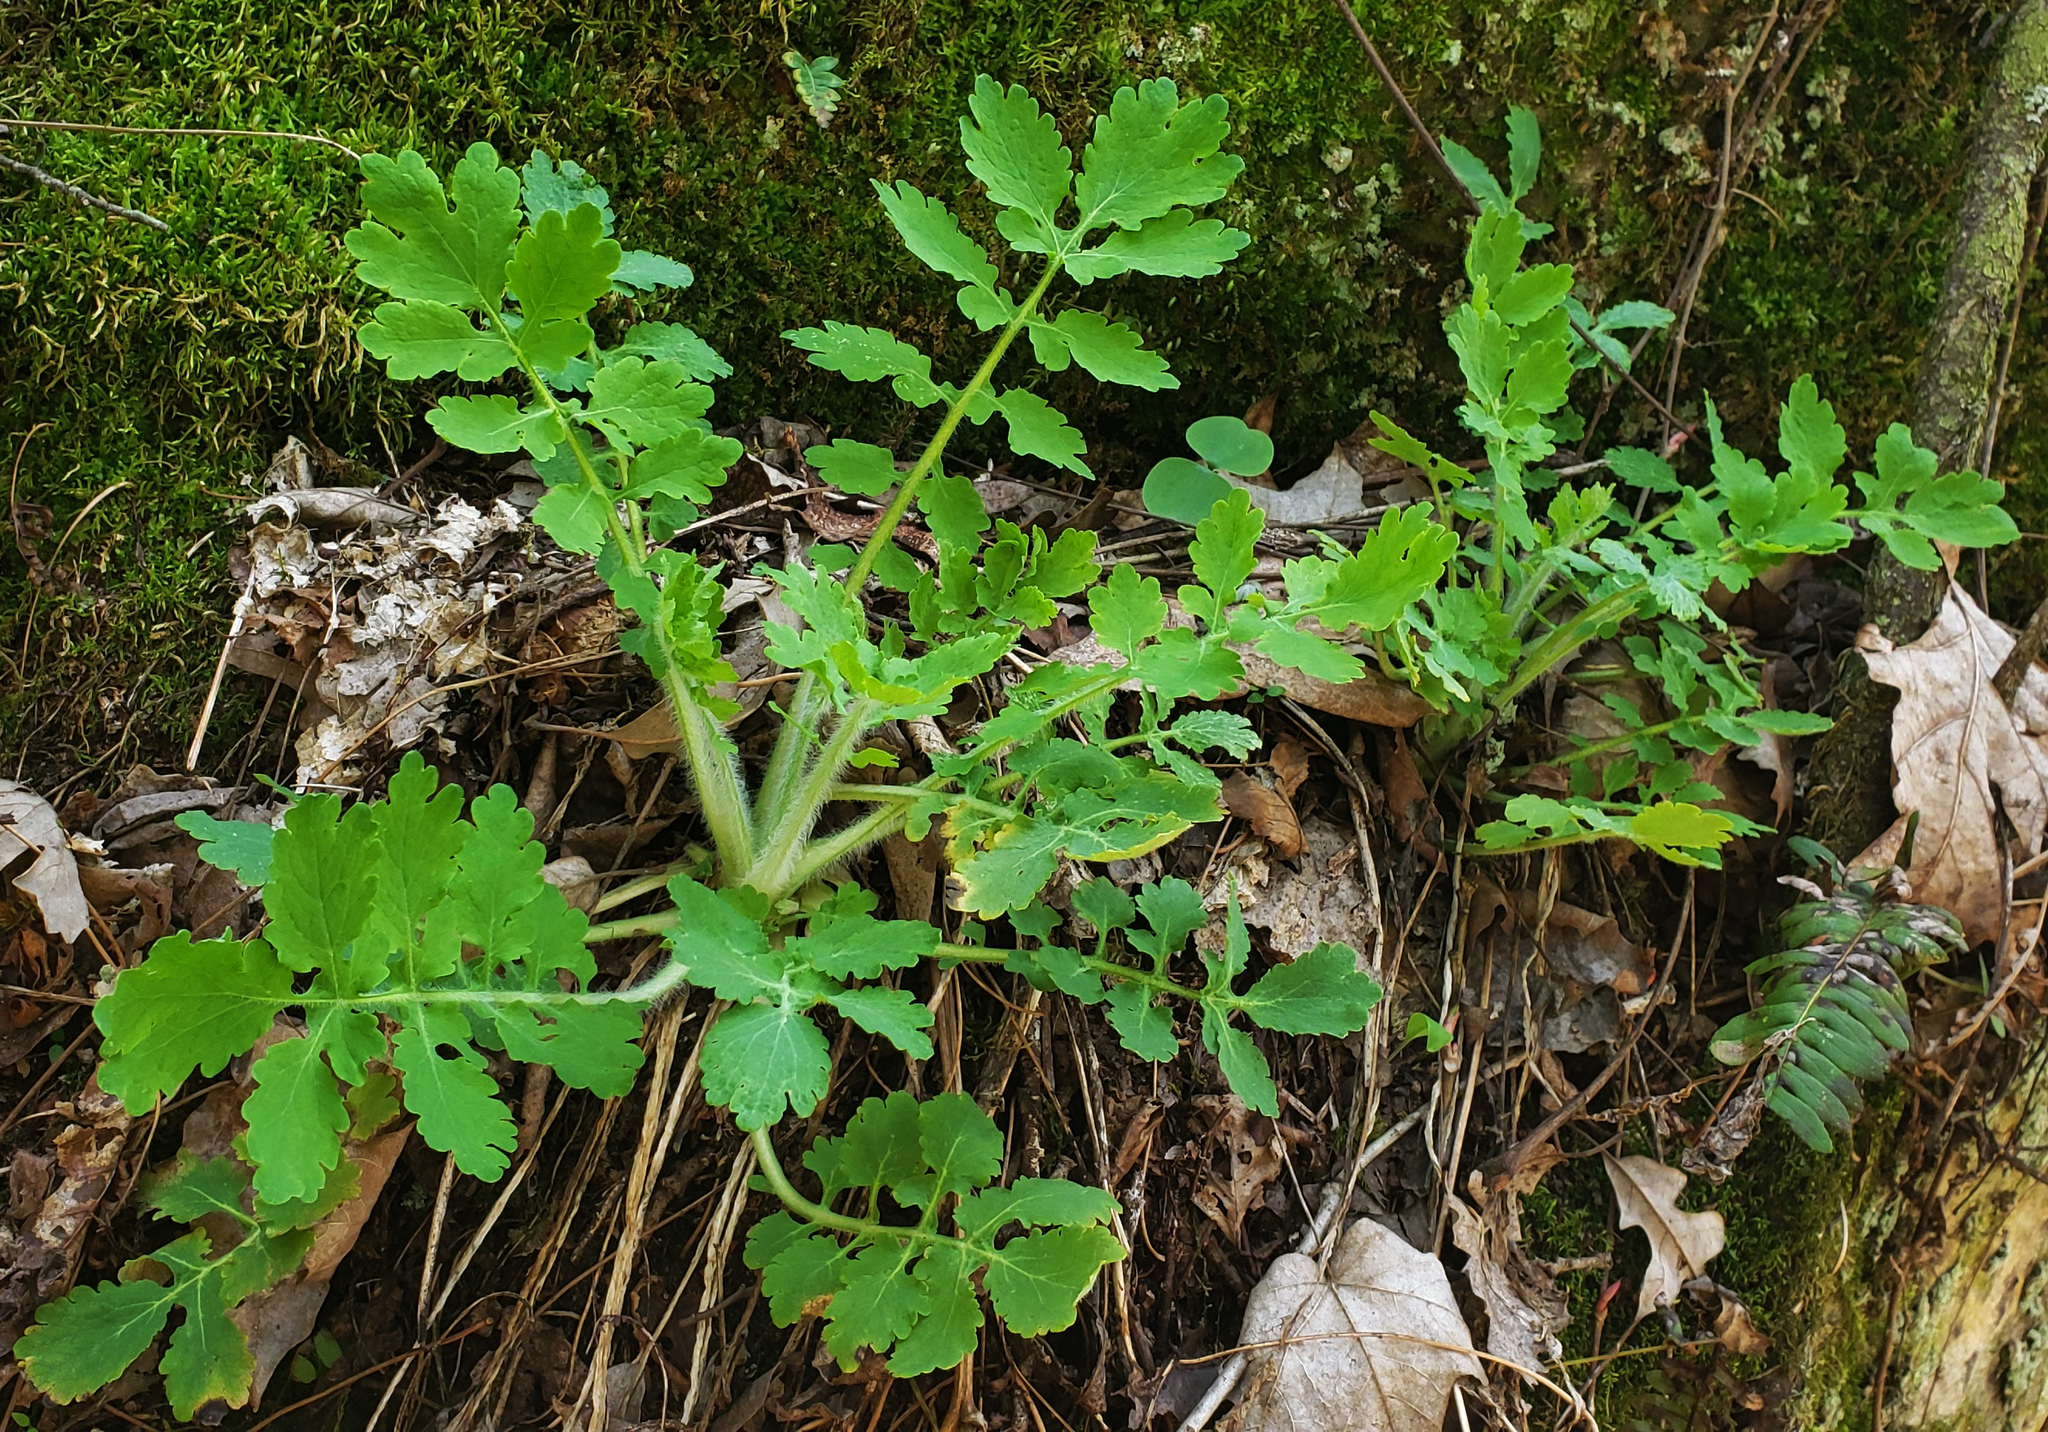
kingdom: Plantae
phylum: Tracheophyta
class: Magnoliopsida
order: Ranunculales
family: Papaveraceae
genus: Chelidonium
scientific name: Chelidonium majus
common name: Greater celandine
